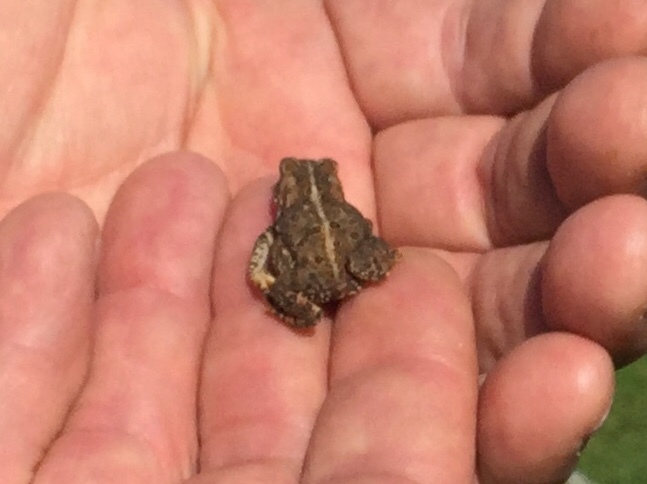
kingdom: Animalia
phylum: Chordata
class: Amphibia
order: Anura
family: Bufonidae
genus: Anaxyrus
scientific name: Anaxyrus americanus
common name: American toad
